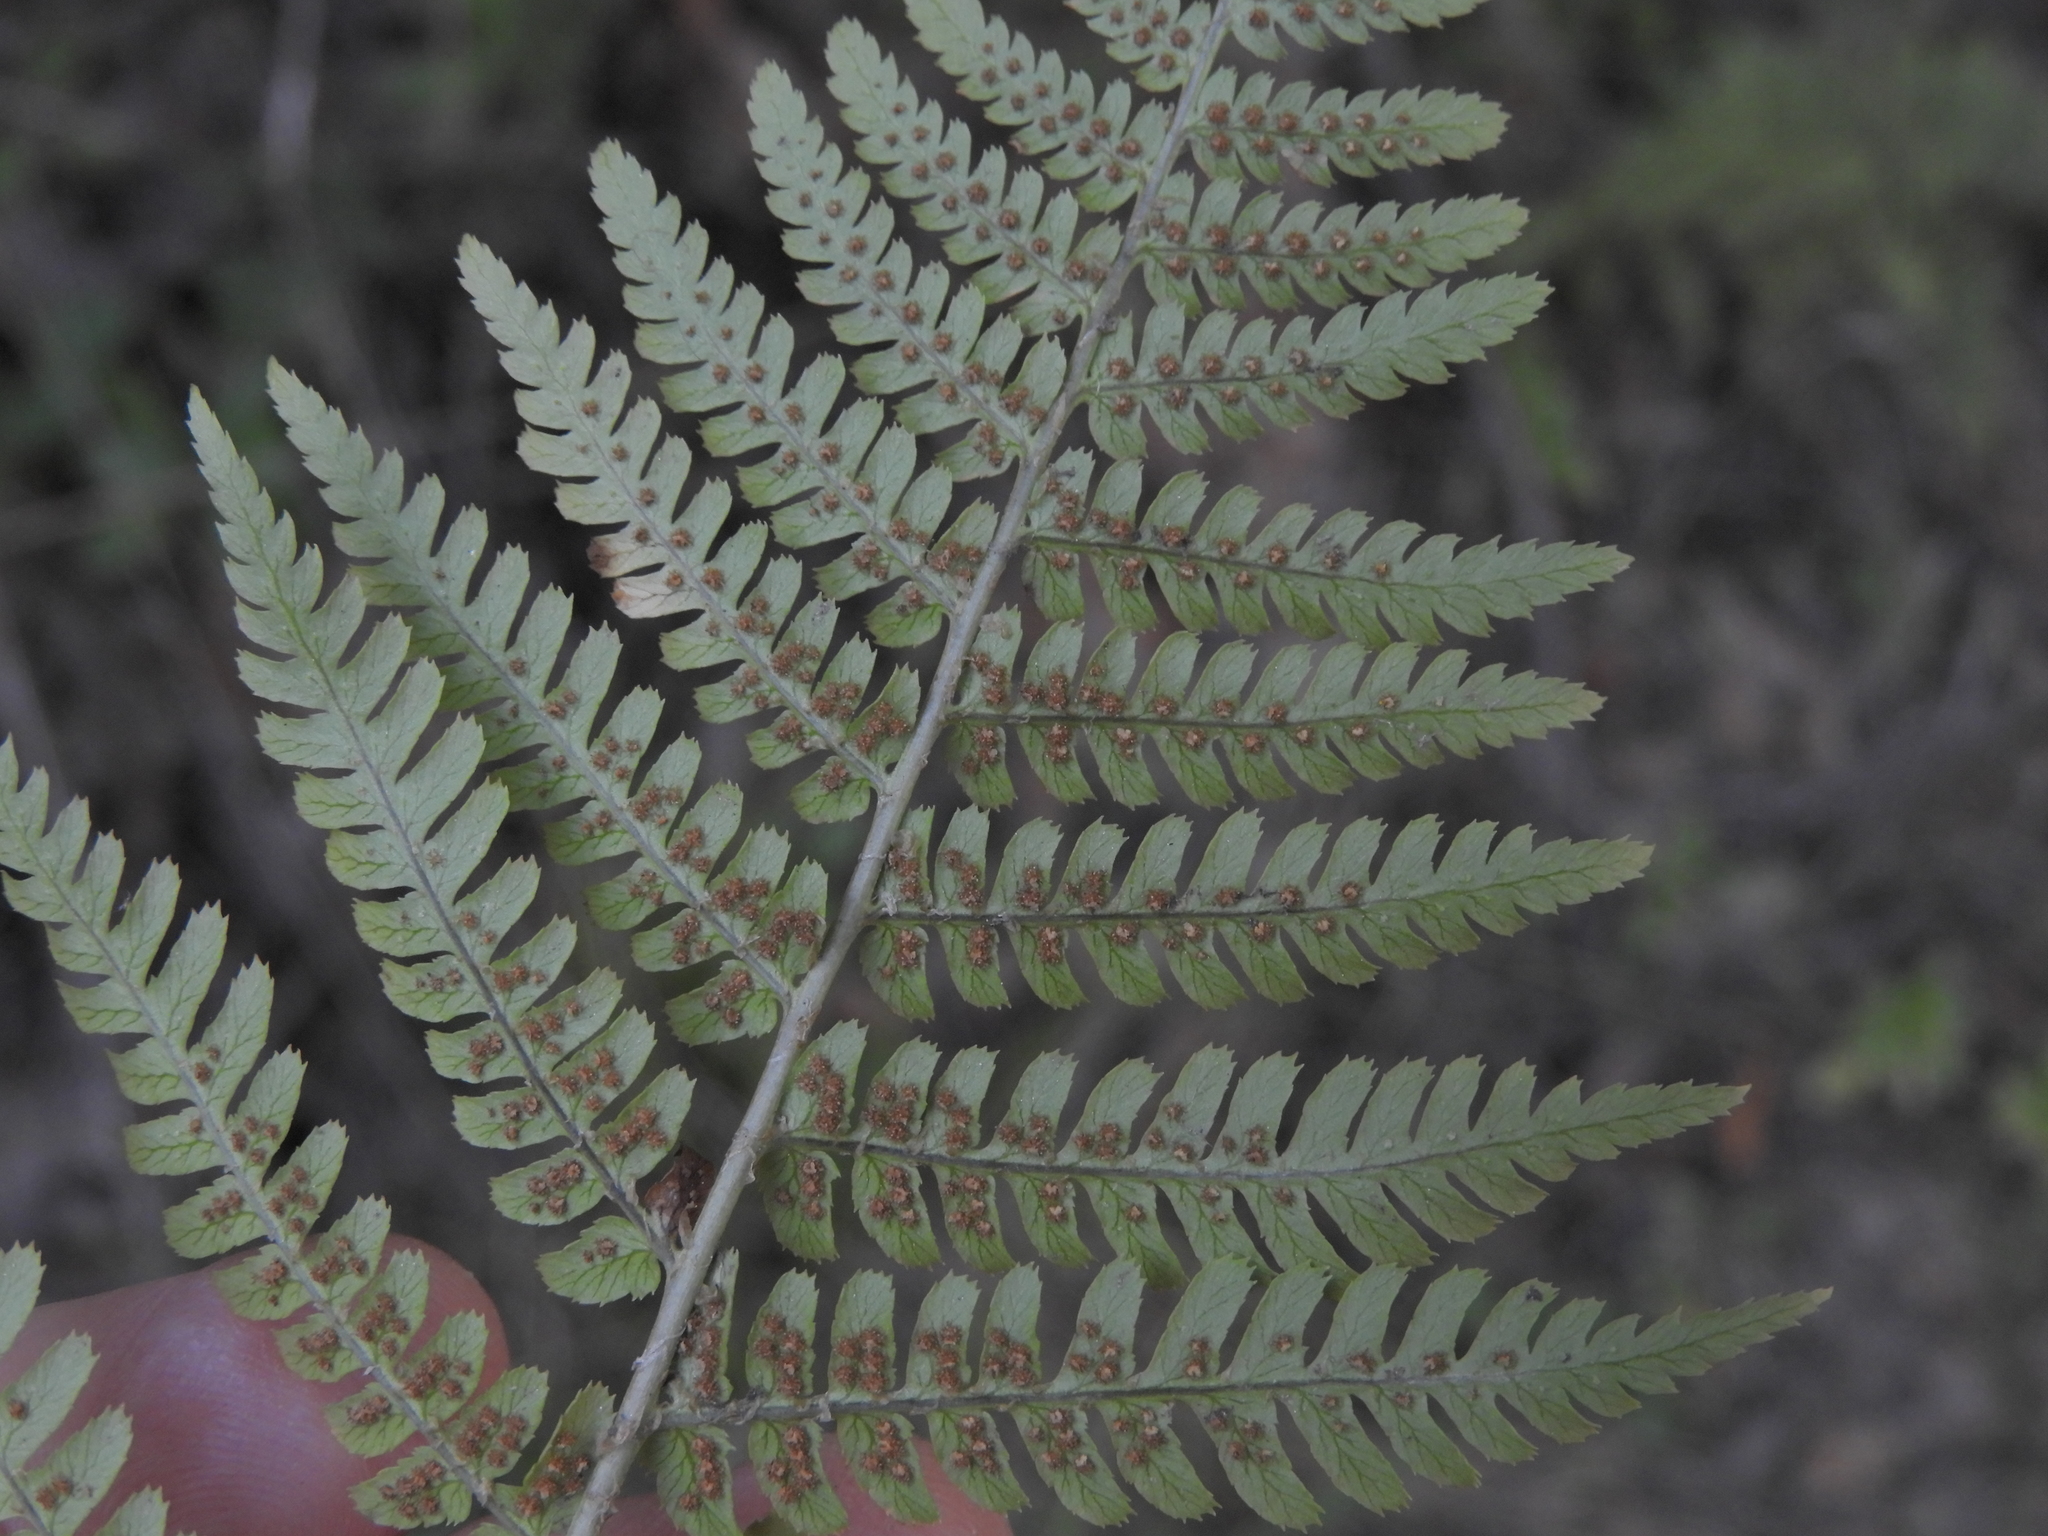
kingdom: Plantae
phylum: Tracheophyta
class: Polypodiopsida
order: Polypodiales
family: Dryopteridaceae
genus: Dryopteris
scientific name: Dryopteris arguta
